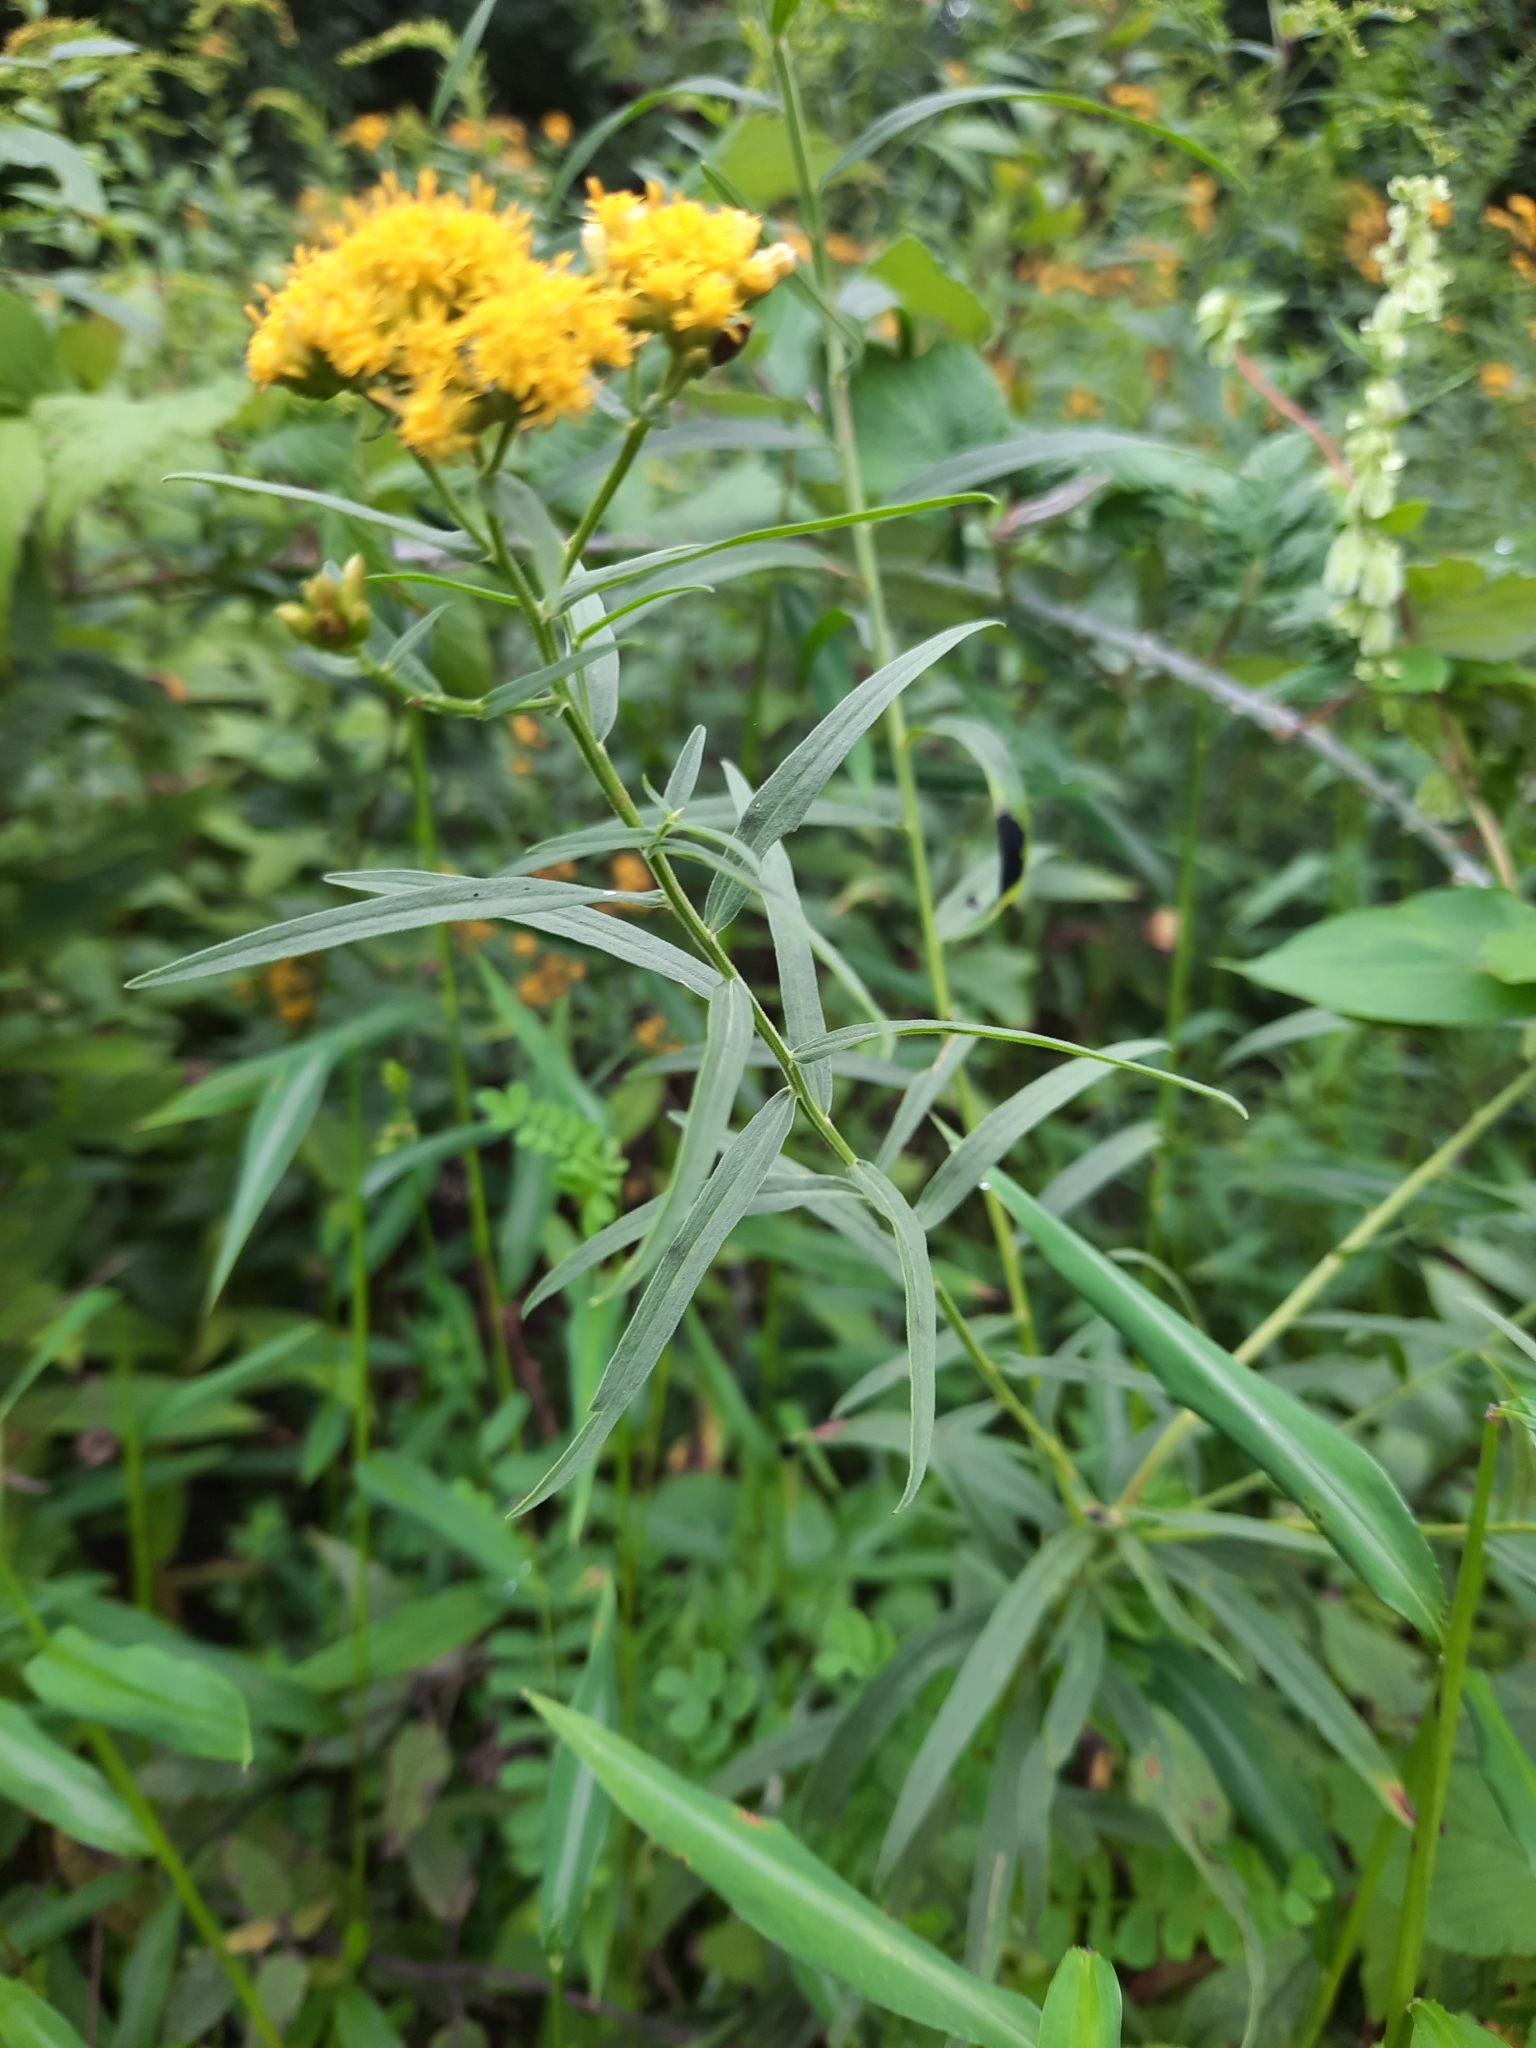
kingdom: Plantae
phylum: Tracheophyta
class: Magnoliopsida
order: Asterales
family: Asteraceae
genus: Euthamia
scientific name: Euthamia graminifolia
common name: Common goldentop
